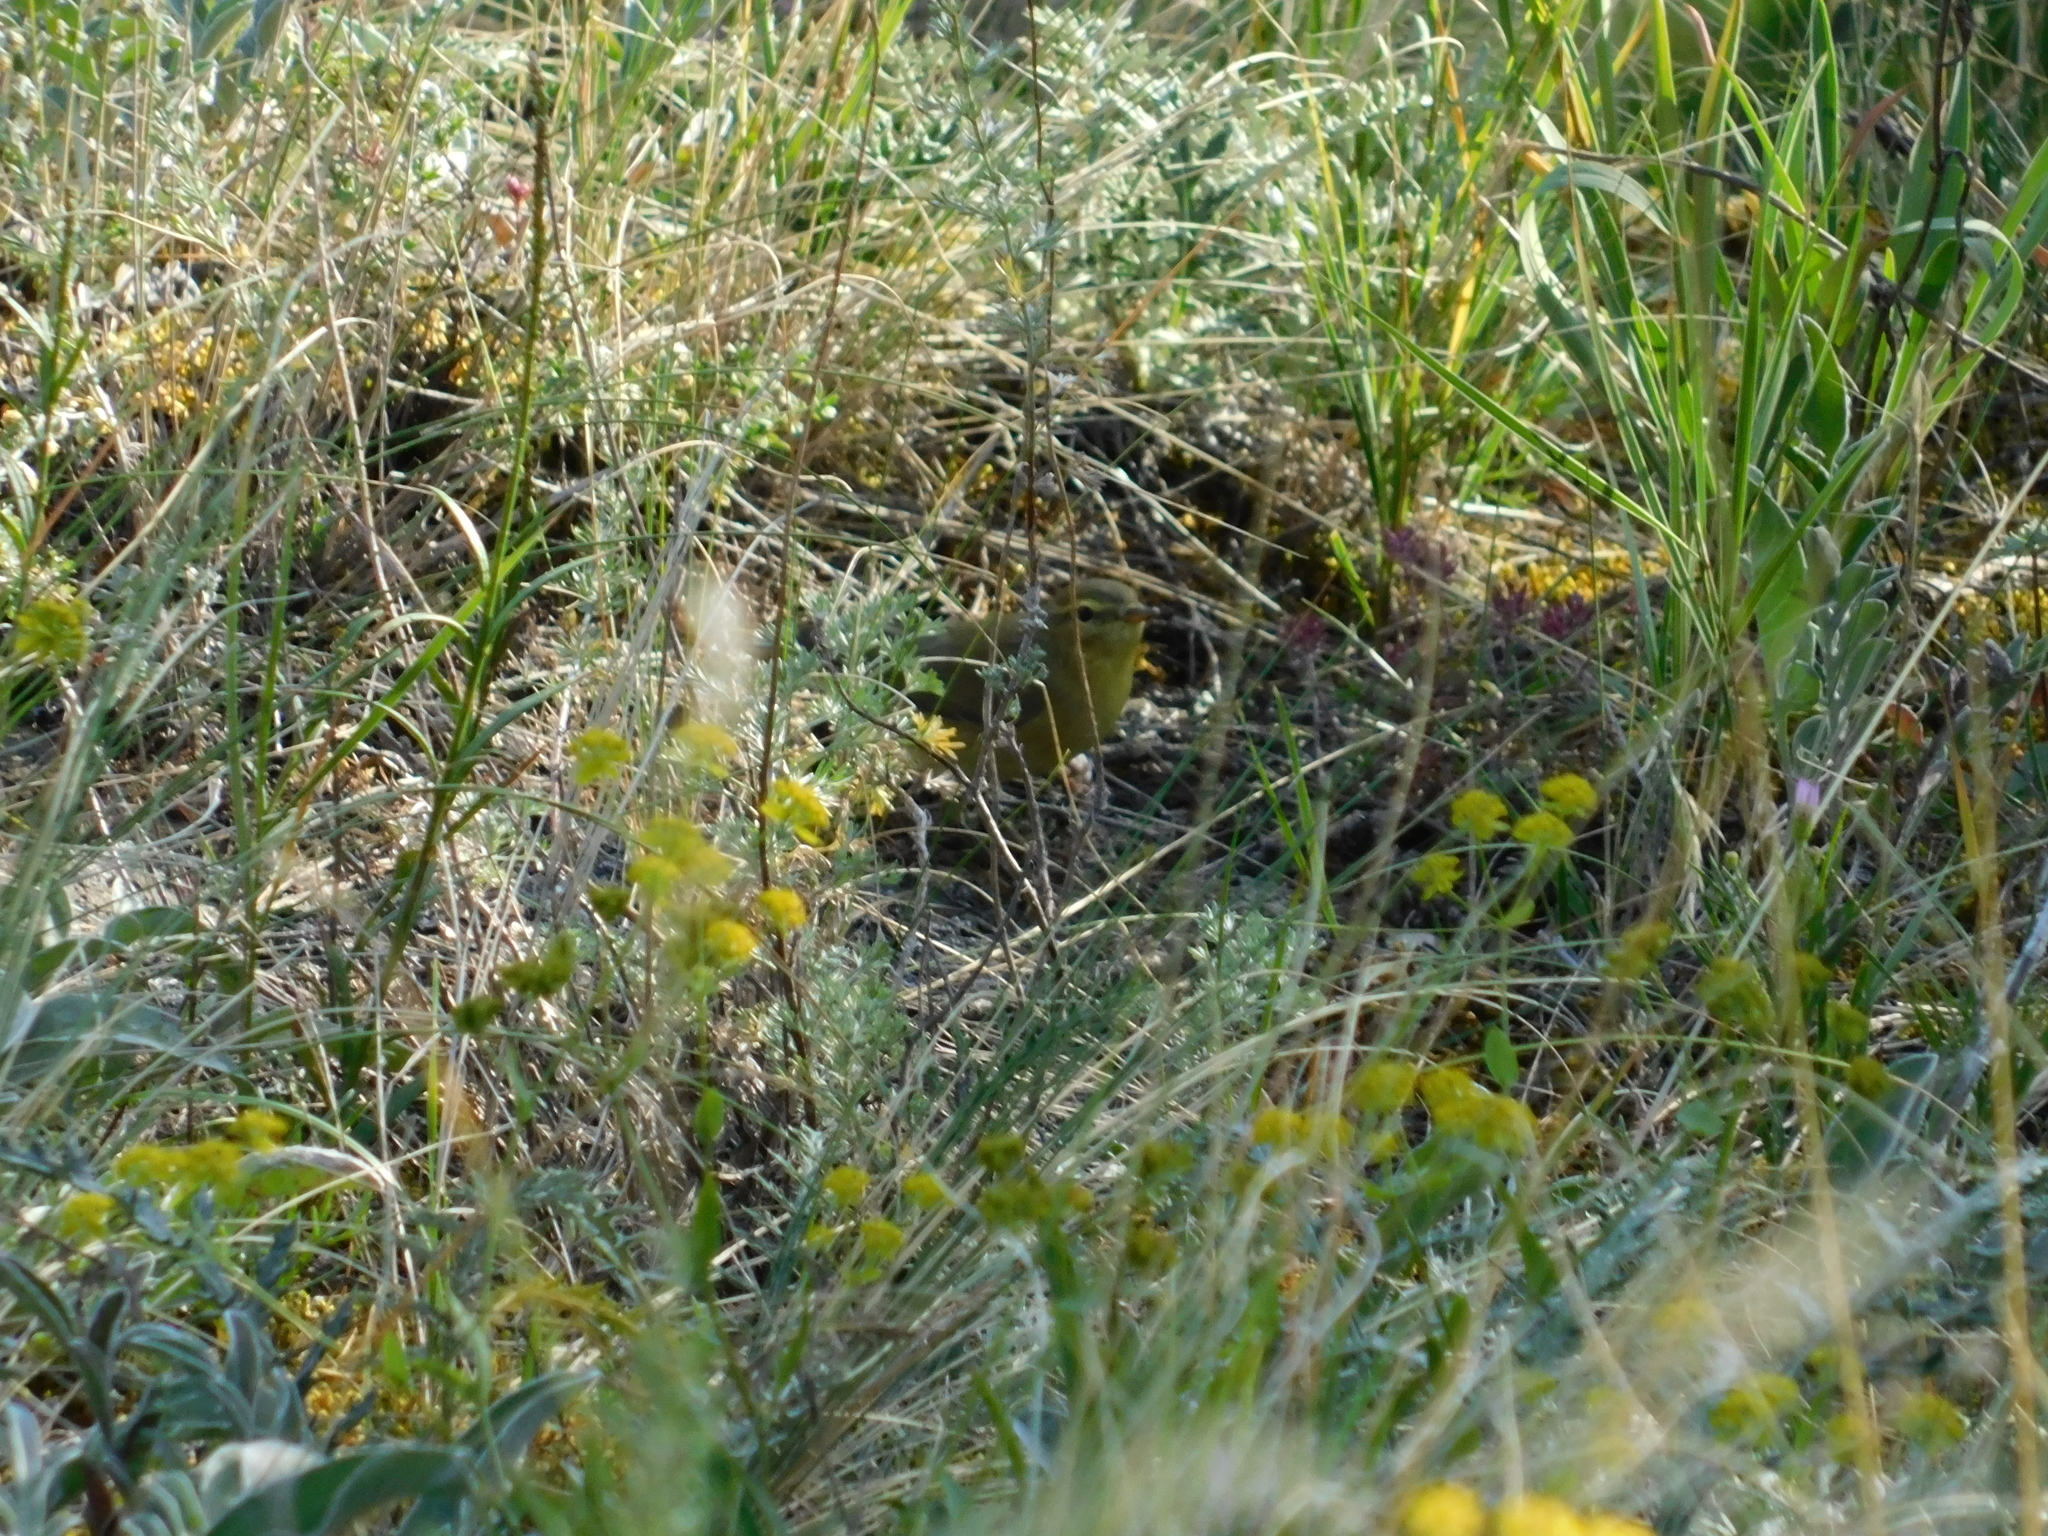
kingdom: Animalia
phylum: Chordata
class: Aves
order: Passeriformes
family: Phylloscopidae
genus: Phylloscopus
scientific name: Phylloscopus trochilus
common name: Willow warbler
